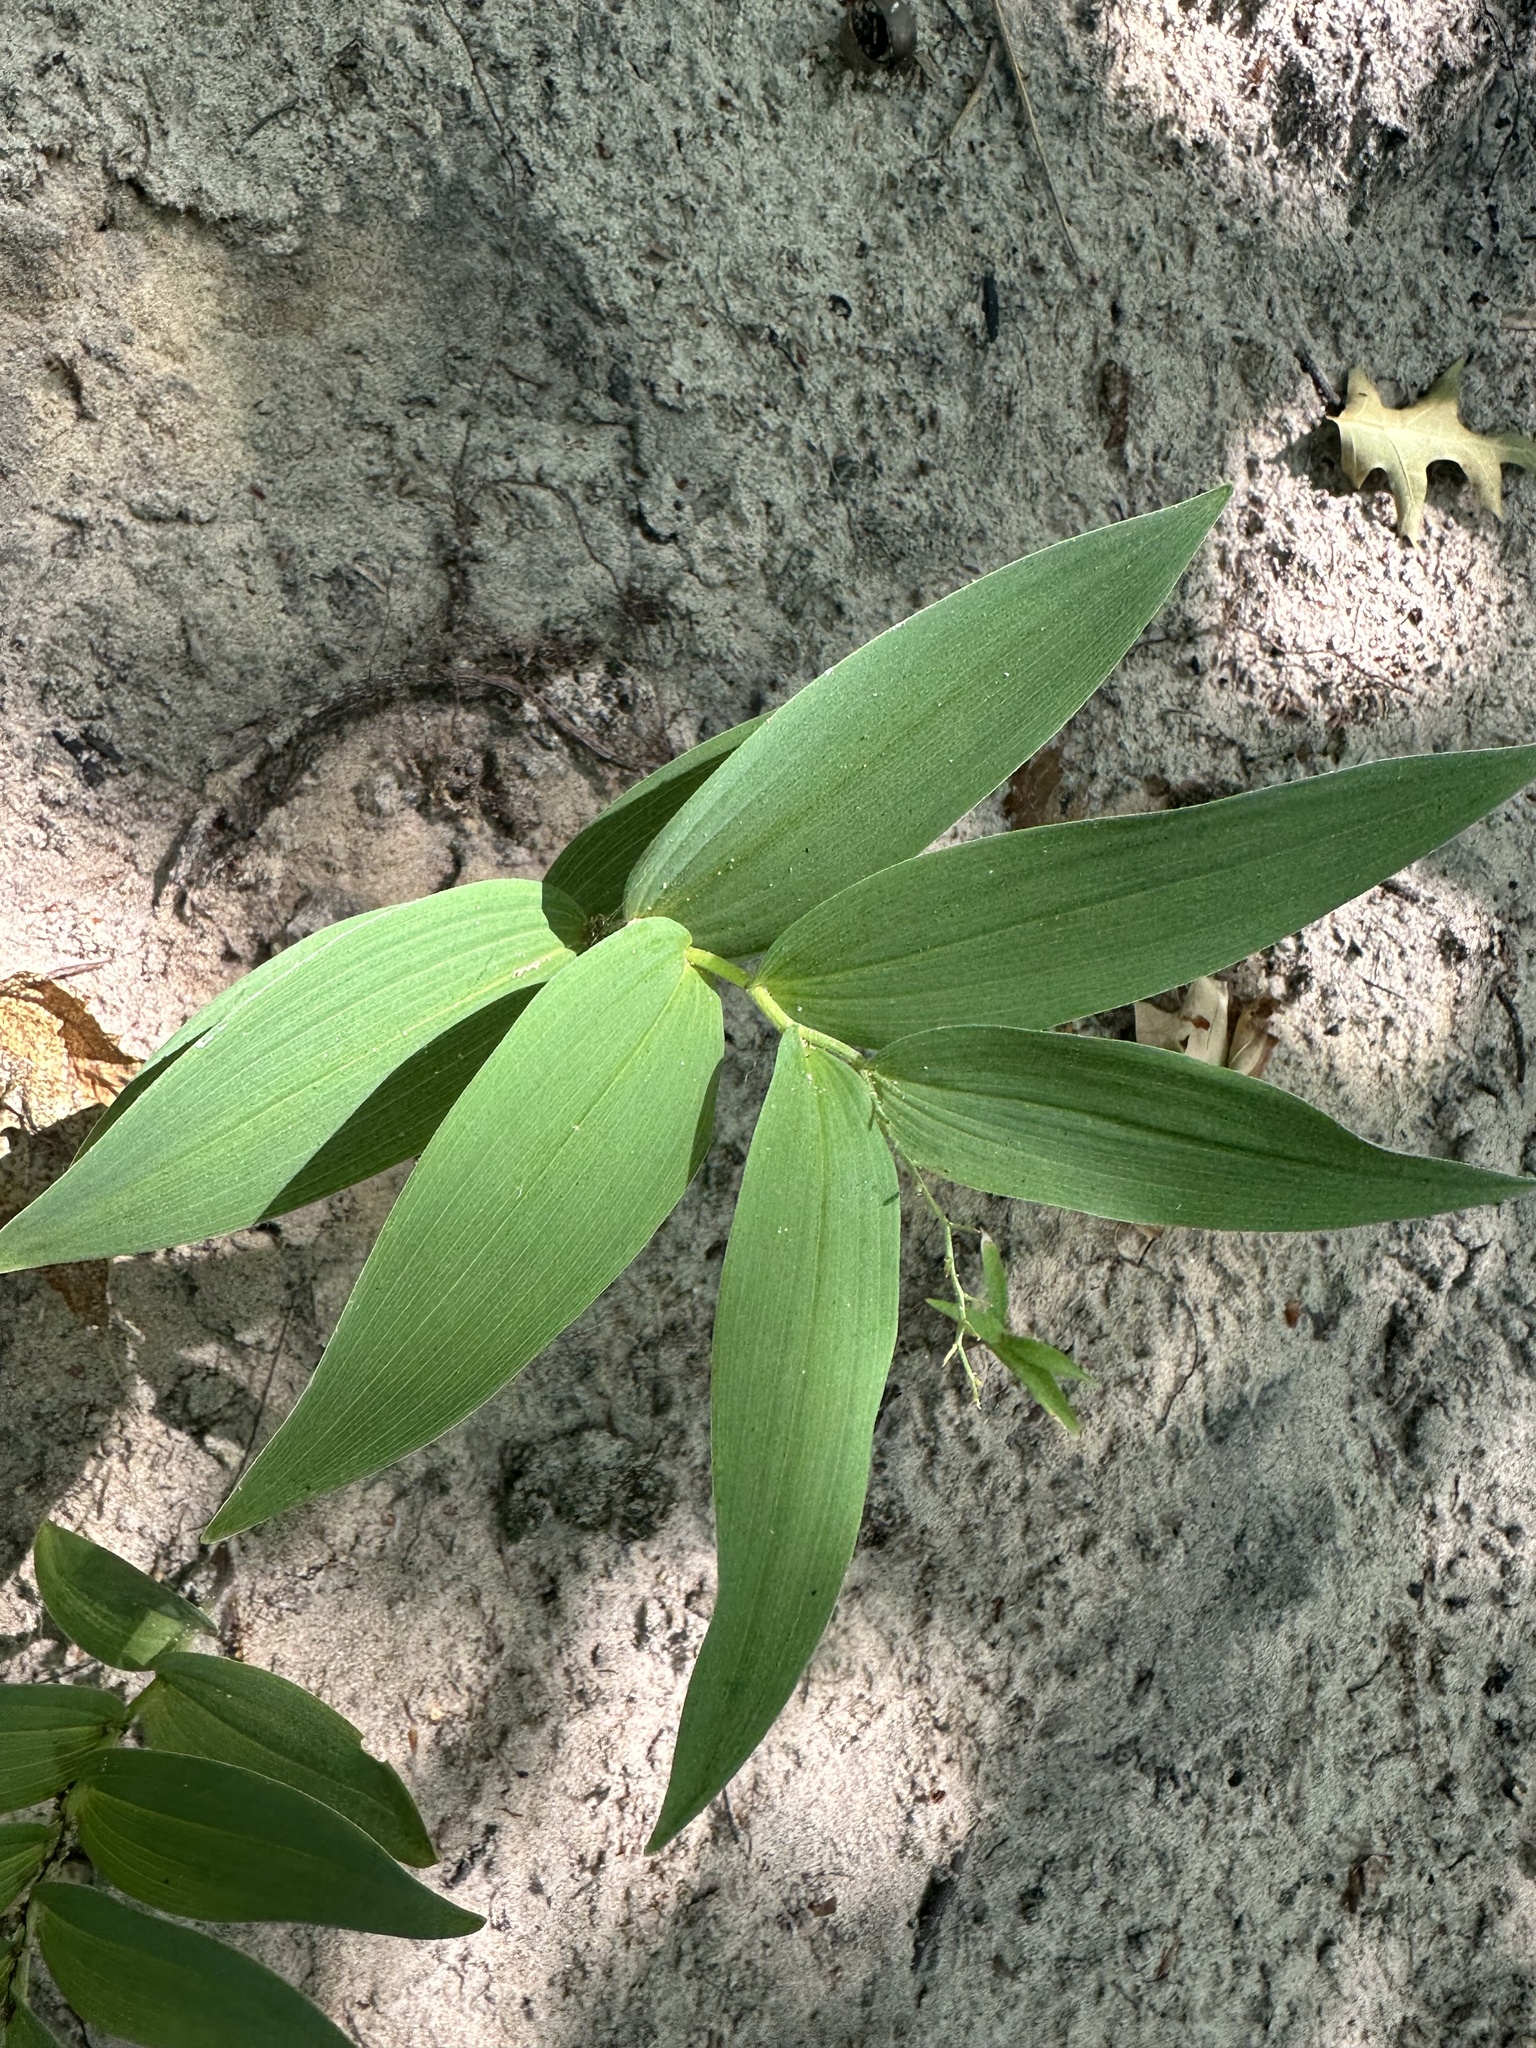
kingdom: Plantae
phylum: Tracheophyta
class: Liliopsida
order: Asparagales
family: Asparagaceae
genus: Maianthemum
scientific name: Maianthemum stellatum
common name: Little false solomon's seal
